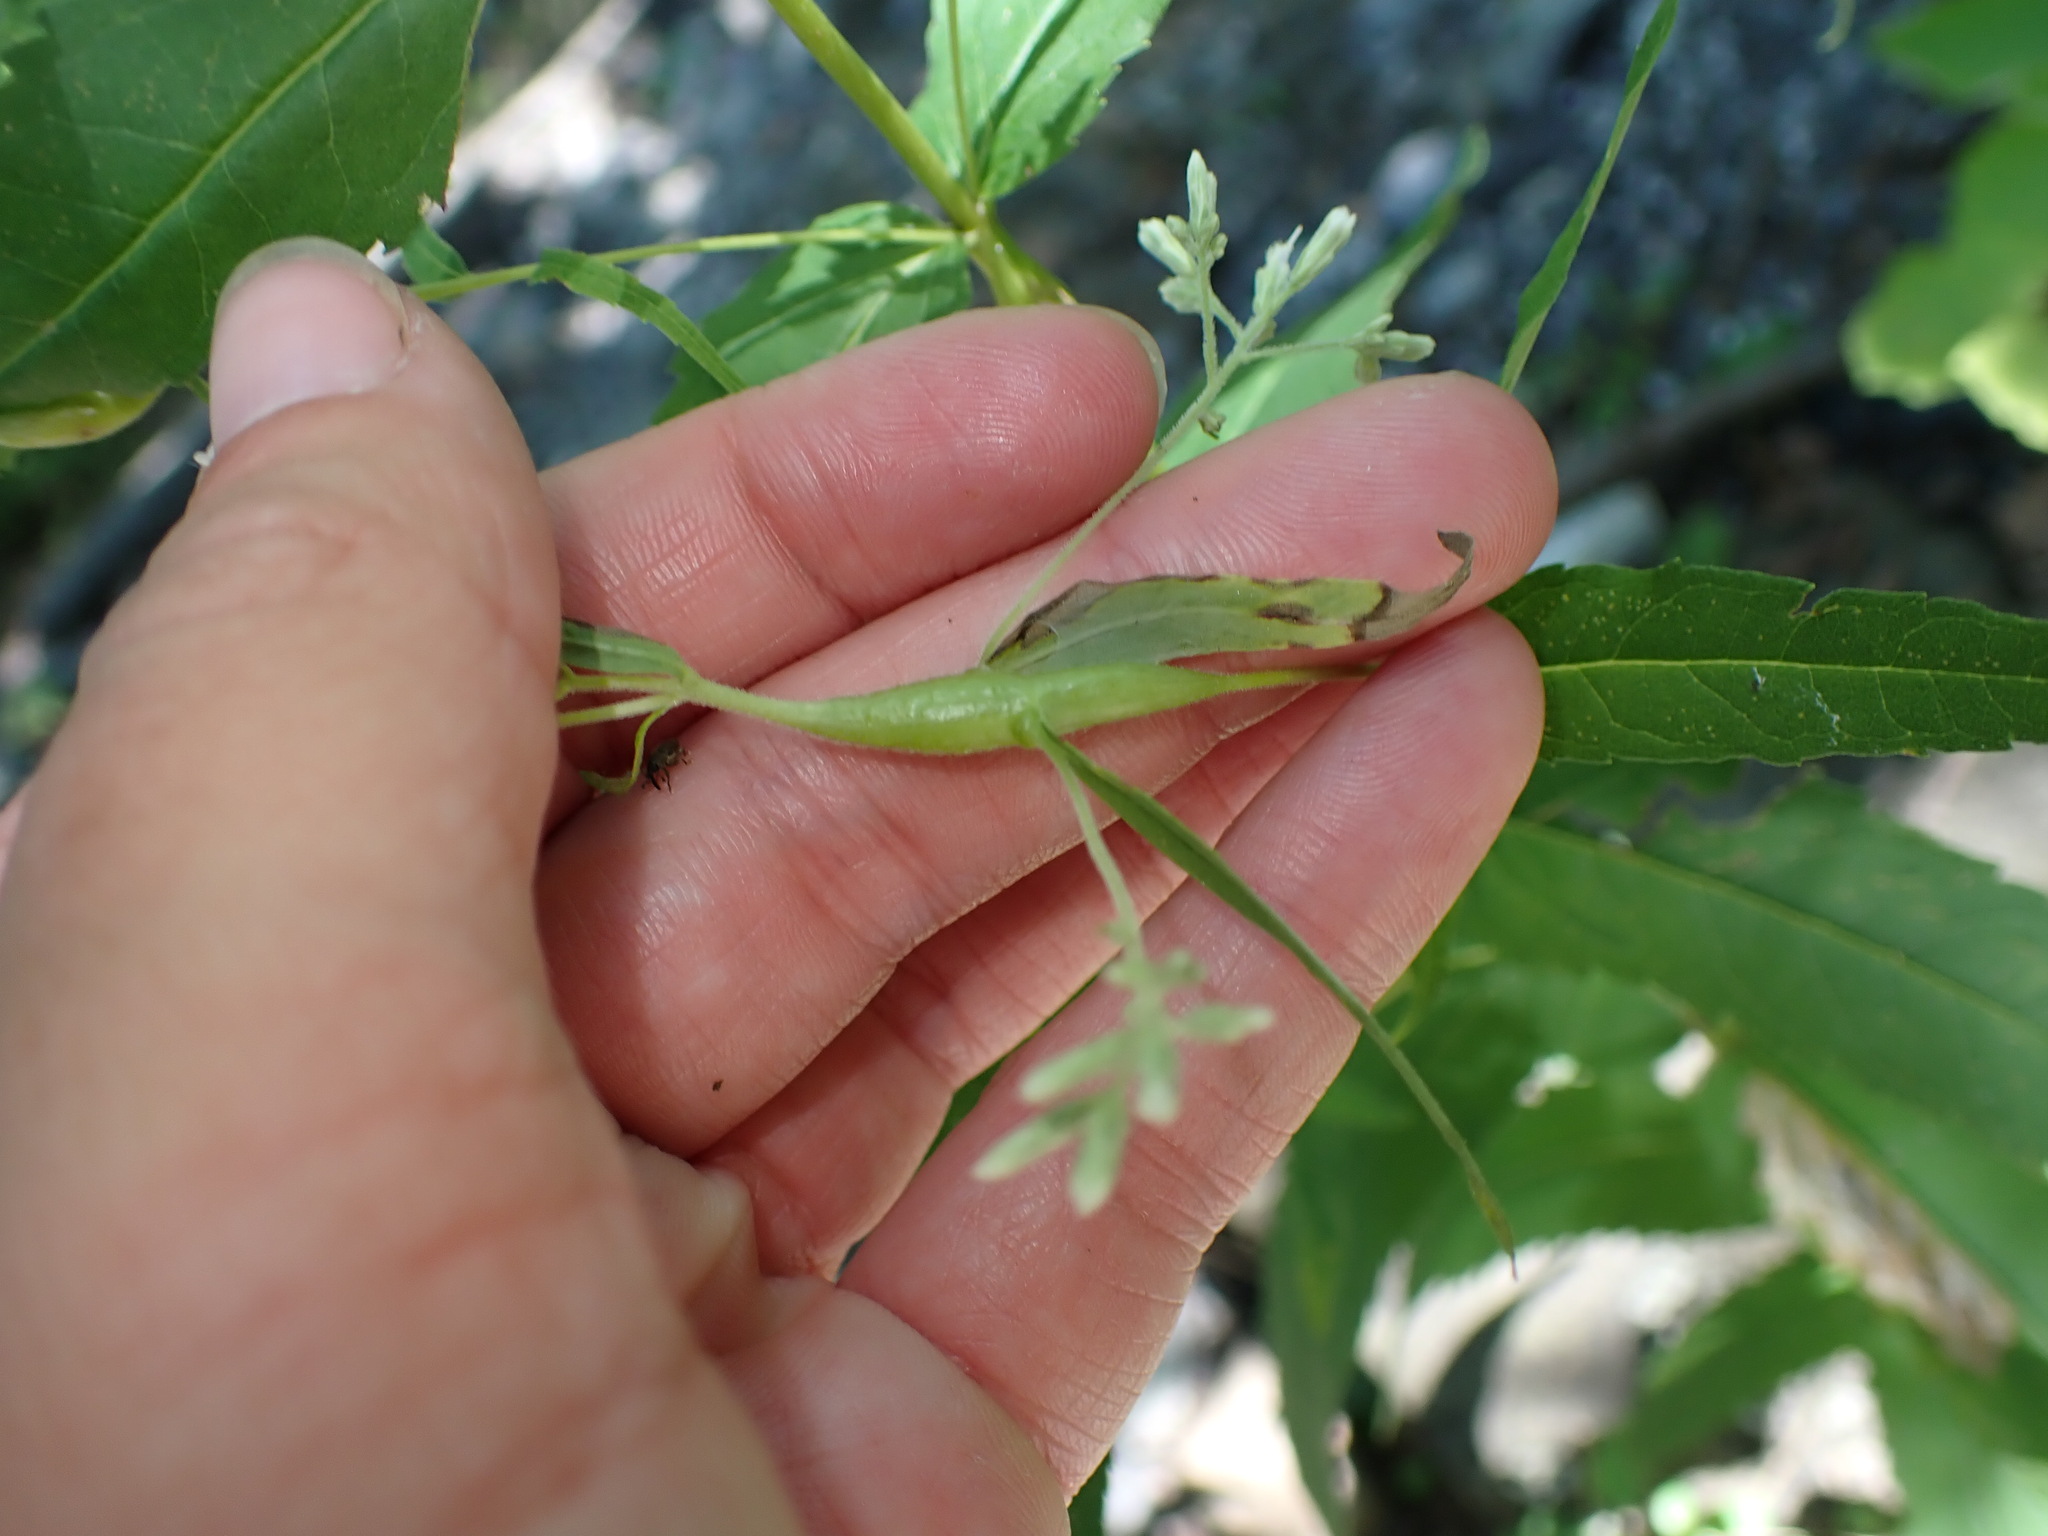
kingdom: Animalia
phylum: Arthropoda
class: Insecta
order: Diptera
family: Cecidomyiidae
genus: Neolasioptera
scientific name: Neolasioptera perfoliata
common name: Boneset stem midge
